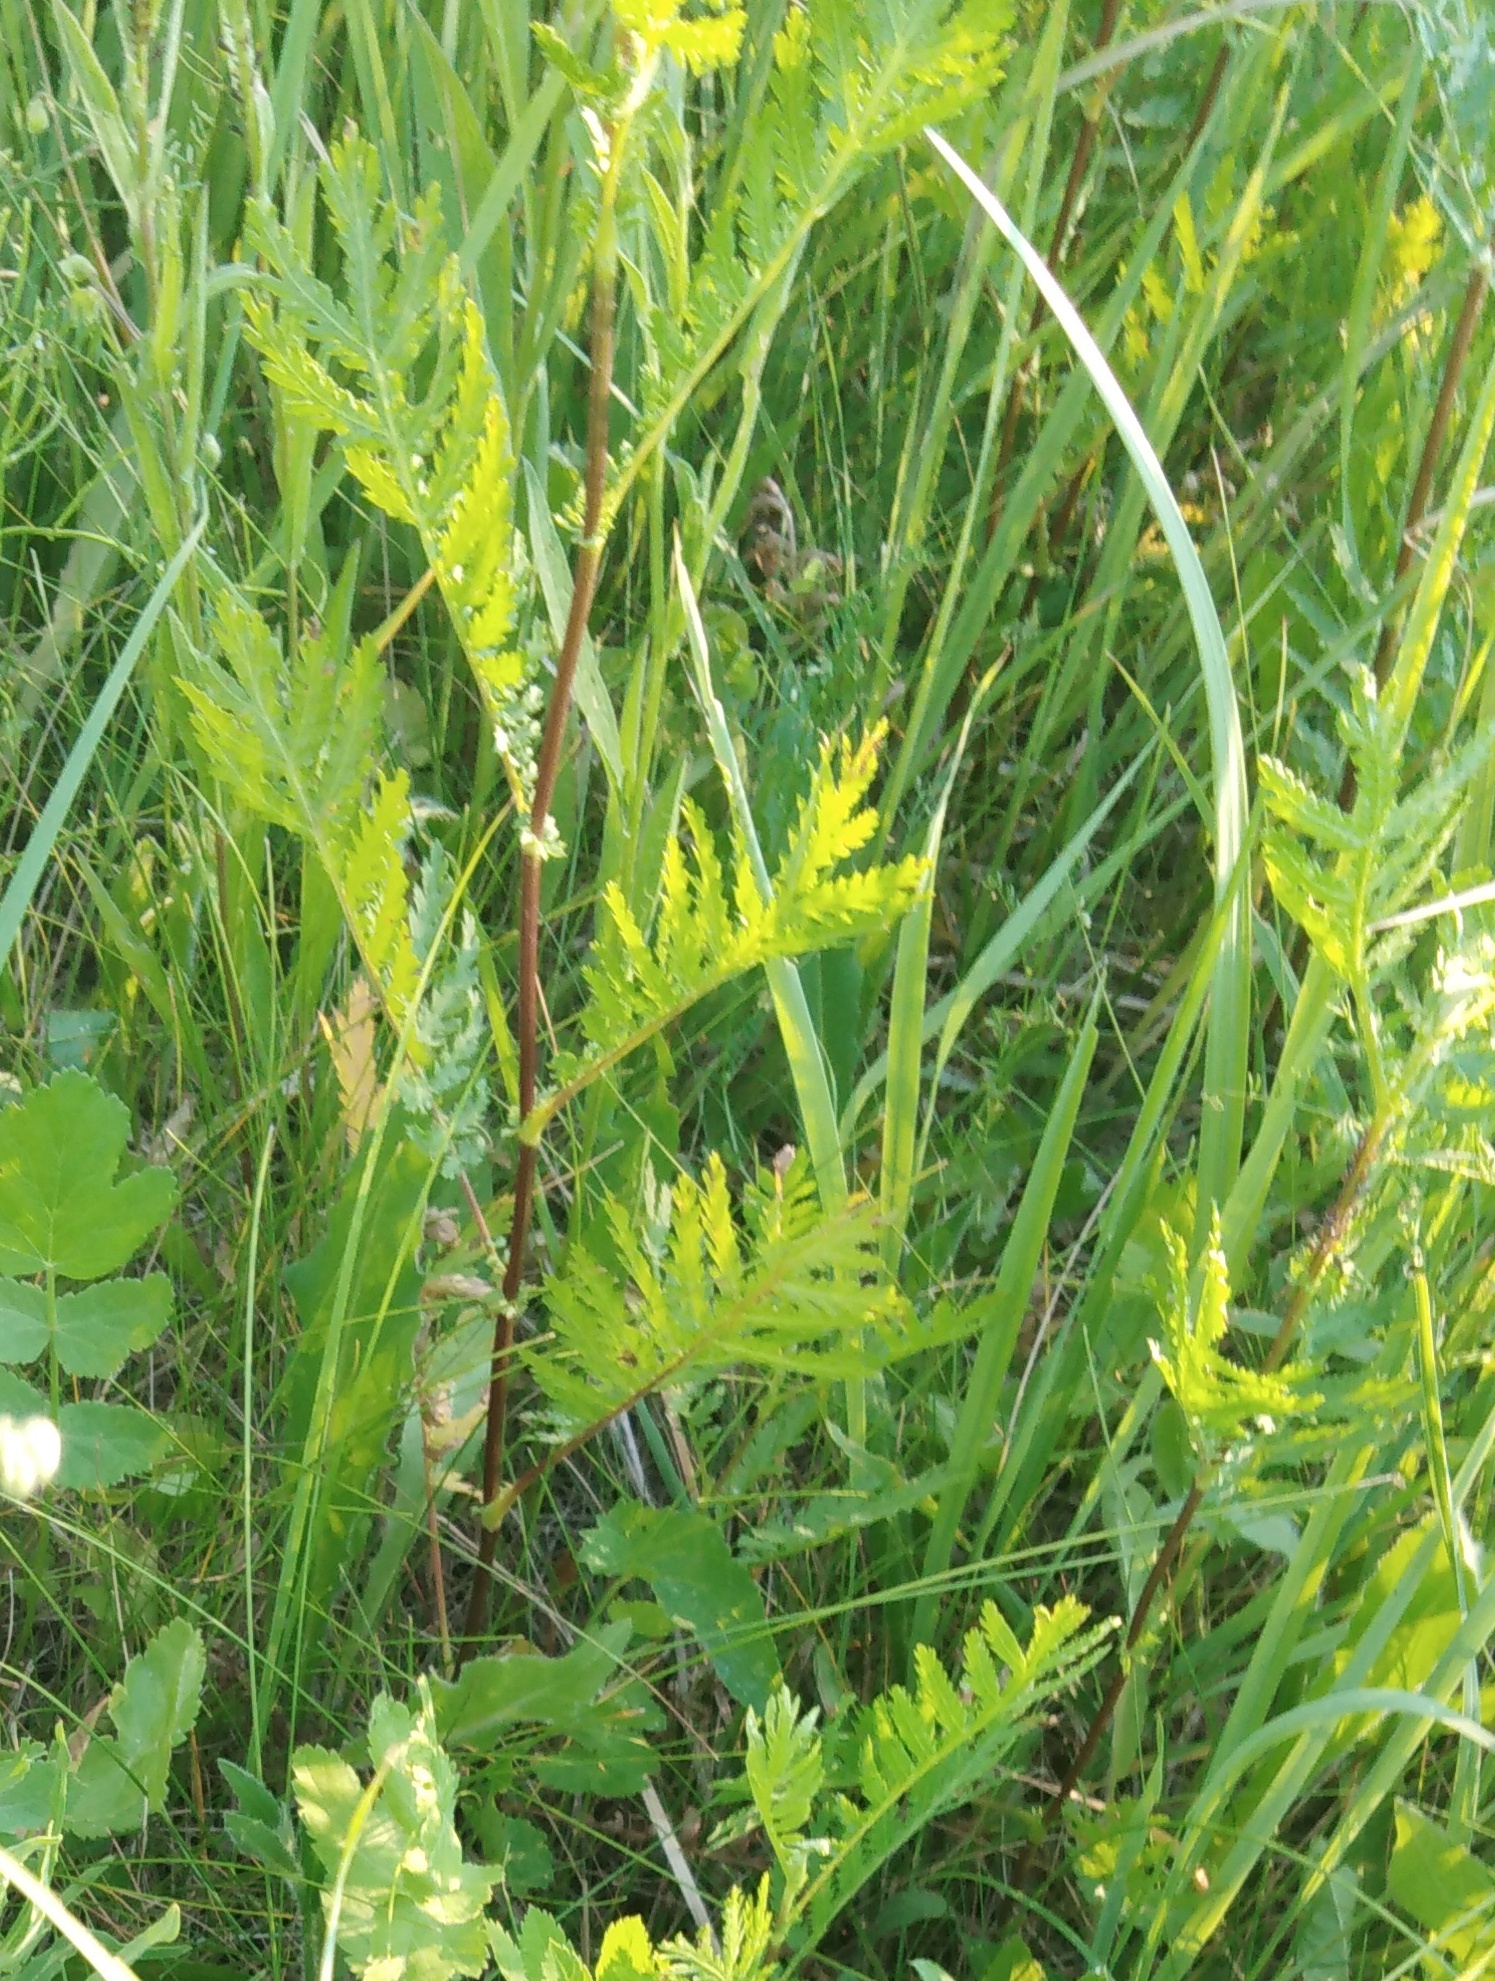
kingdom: Plantae
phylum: Tracheophyta
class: Magnoliopsida
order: Asterales
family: Asteraceae
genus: Tanacetum
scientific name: Tanacetum vulgare
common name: Common tansy
